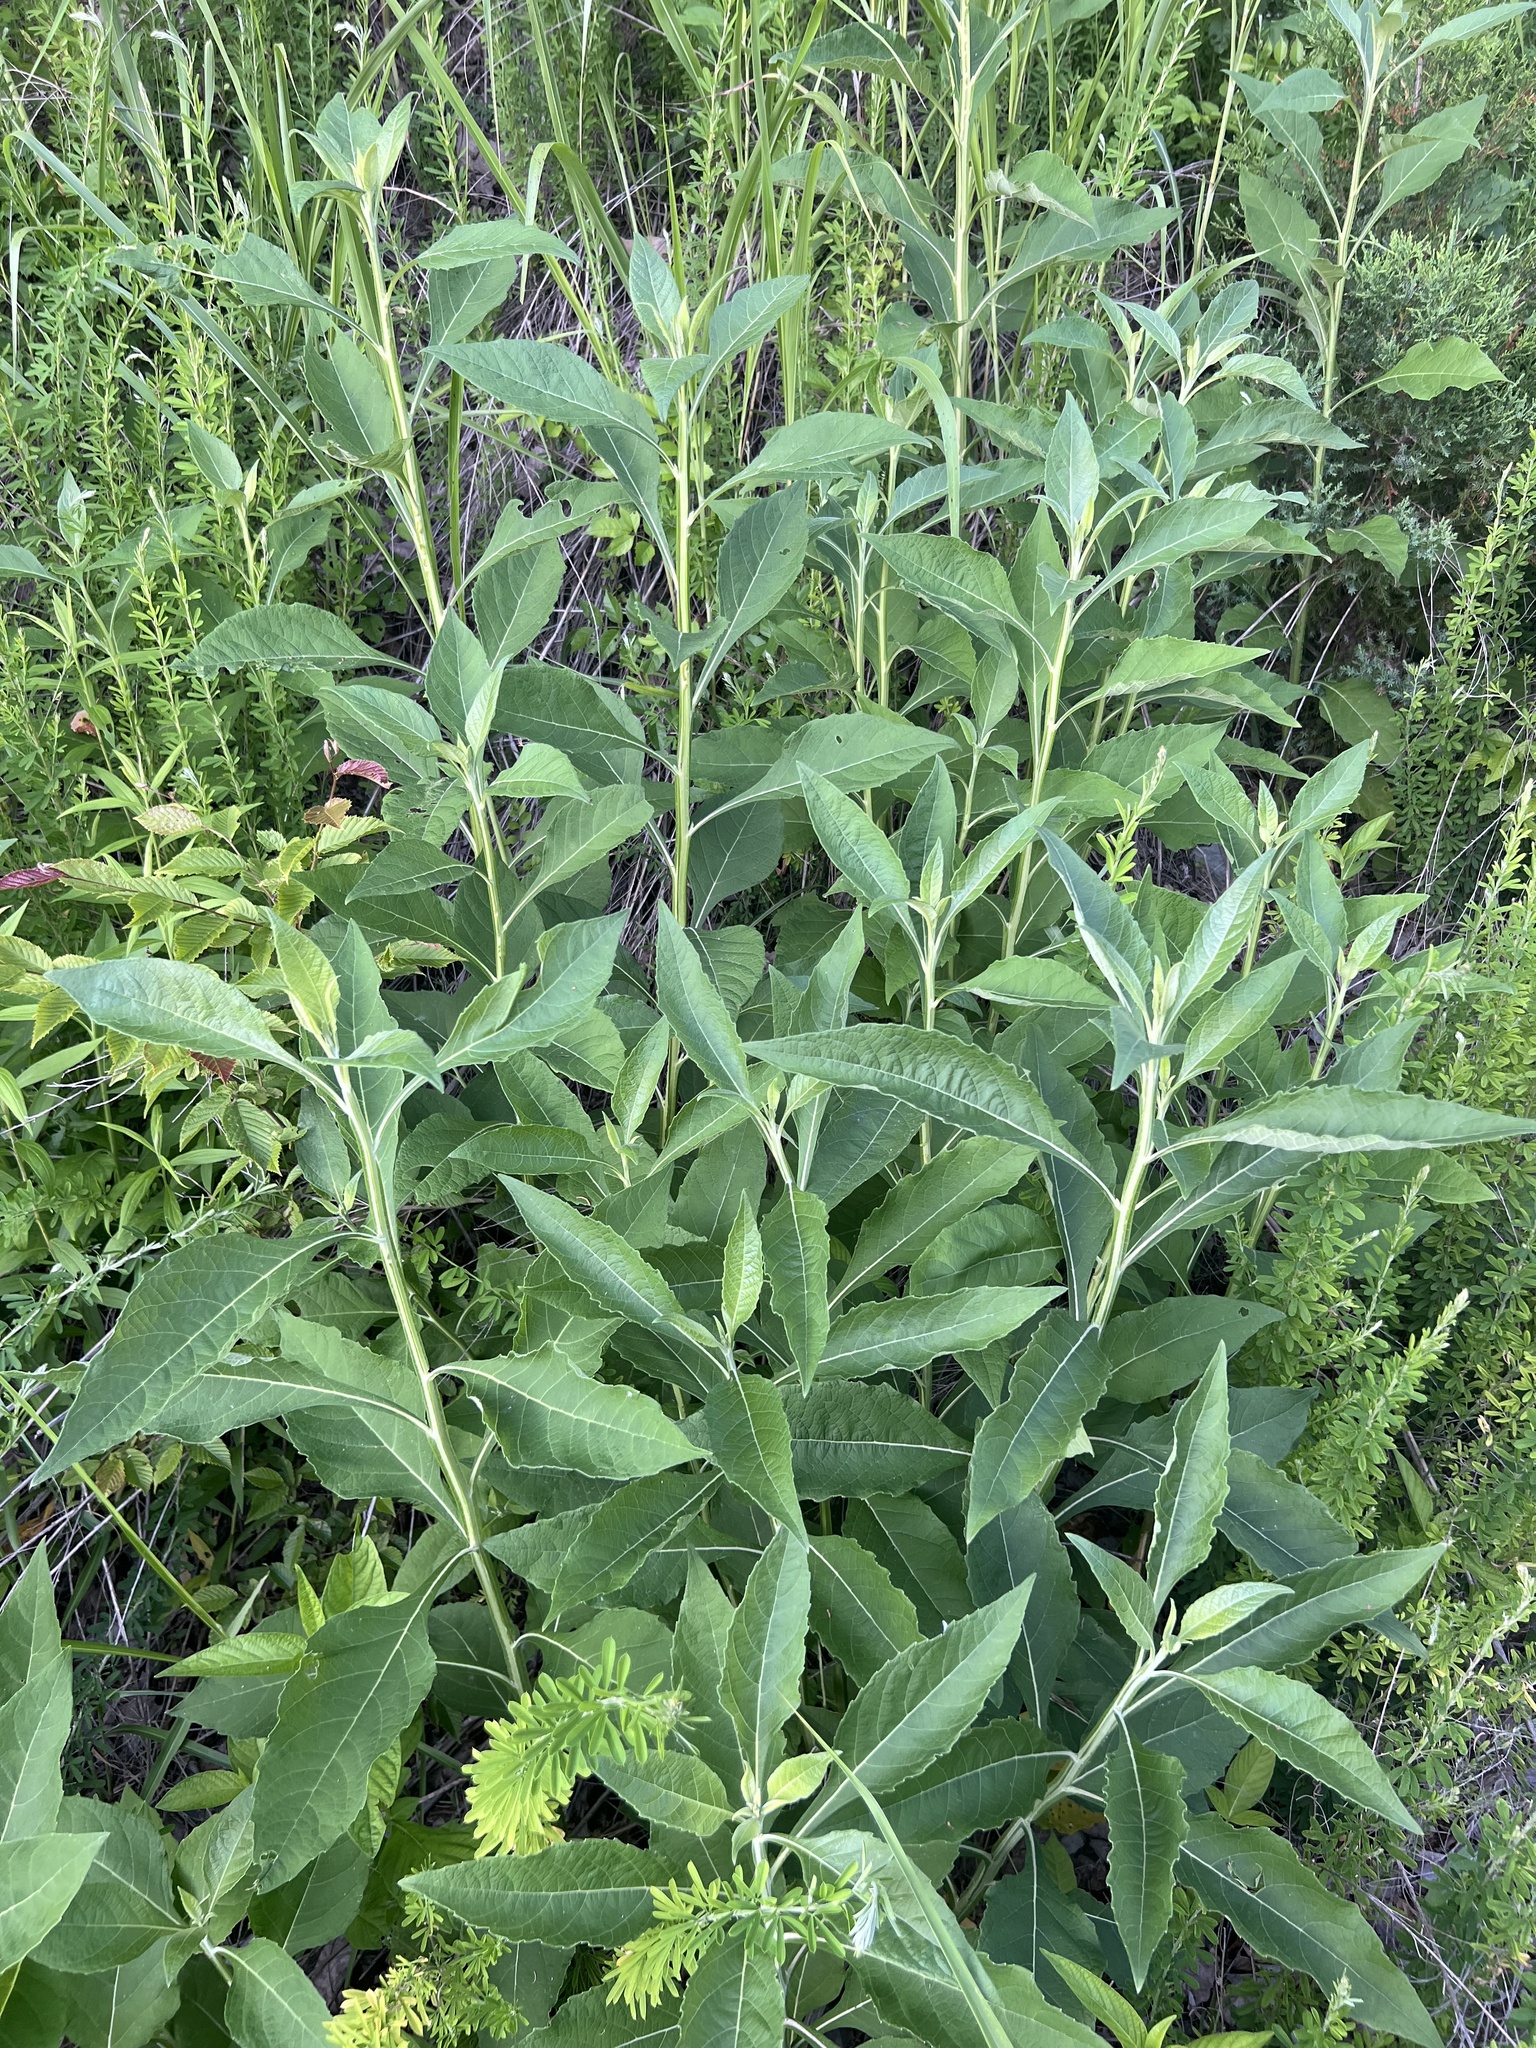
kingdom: Plantae
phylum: Tracheophyta
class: Magnoliopsida
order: Asterales
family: Asteraceae
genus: Verbesina
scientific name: Verbesina virginica
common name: Frostweed
